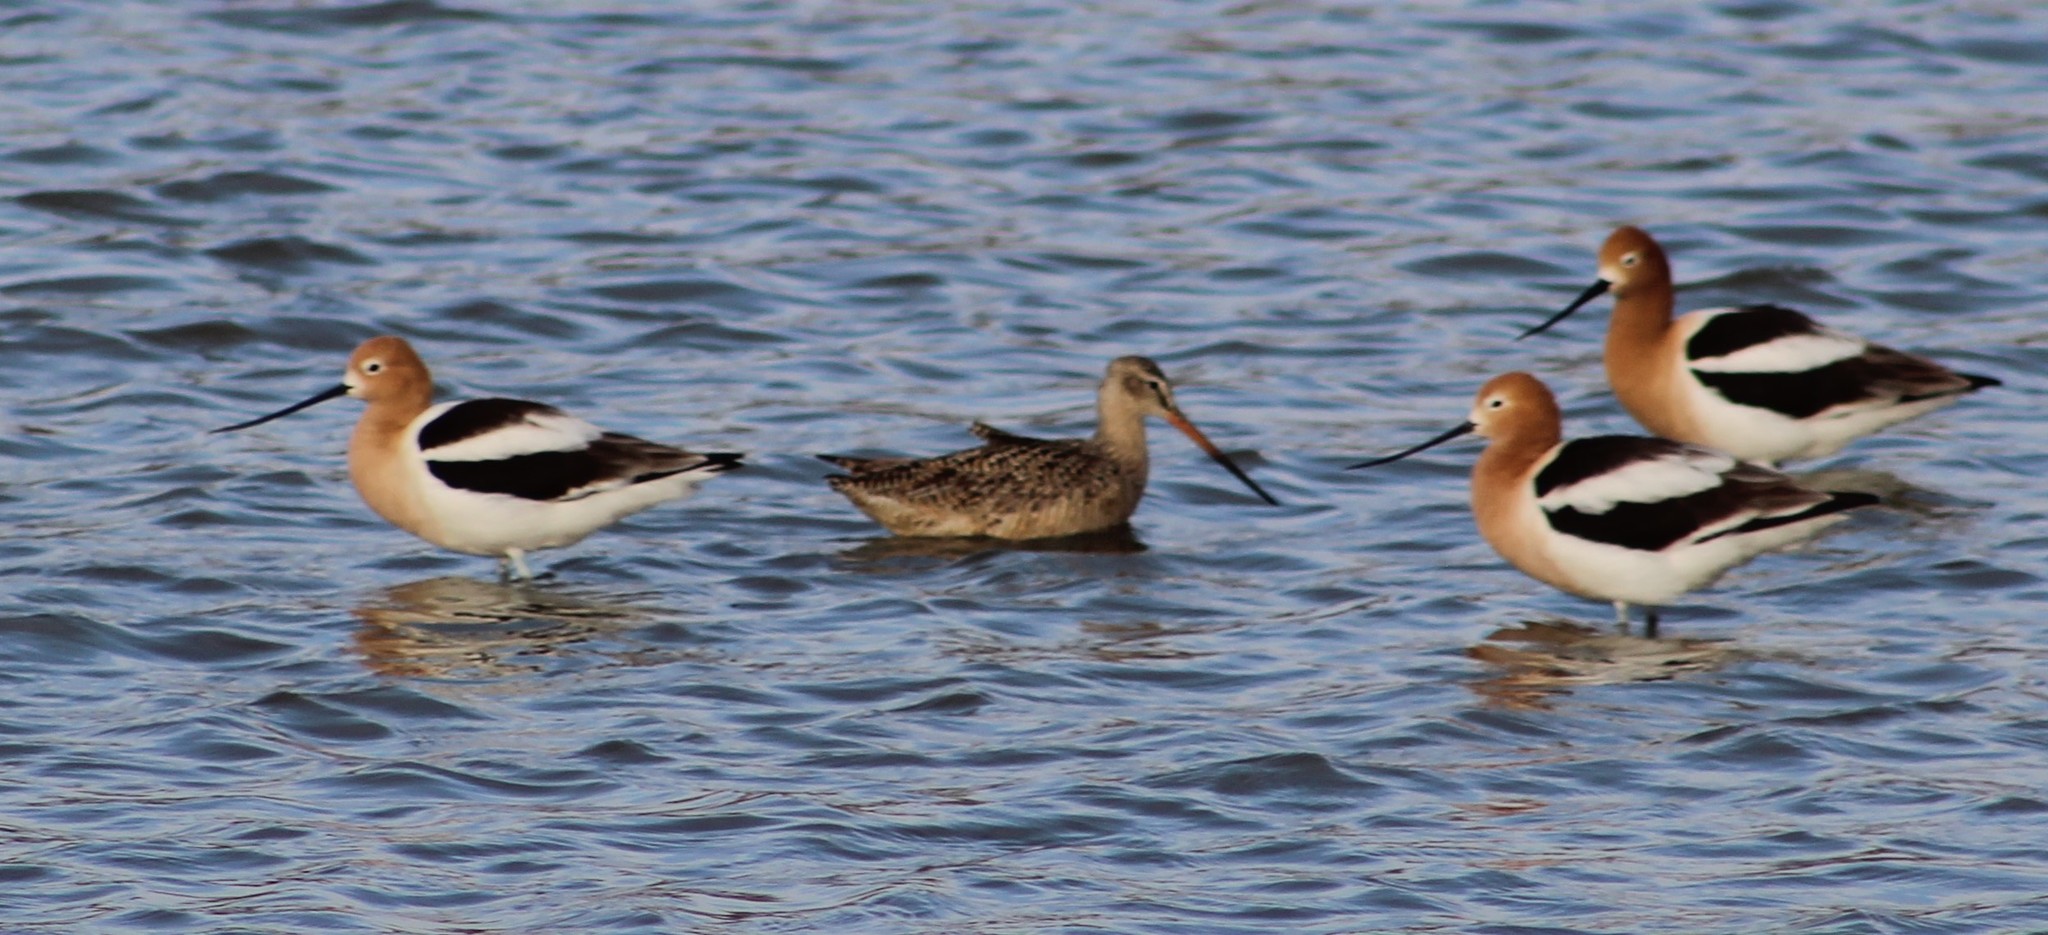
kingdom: Animalia
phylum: Chordata
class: Aves
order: Charadriiformes
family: Recurvirostridae
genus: Recurvirostra
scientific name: Recurvirostra americana
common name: American avocet
